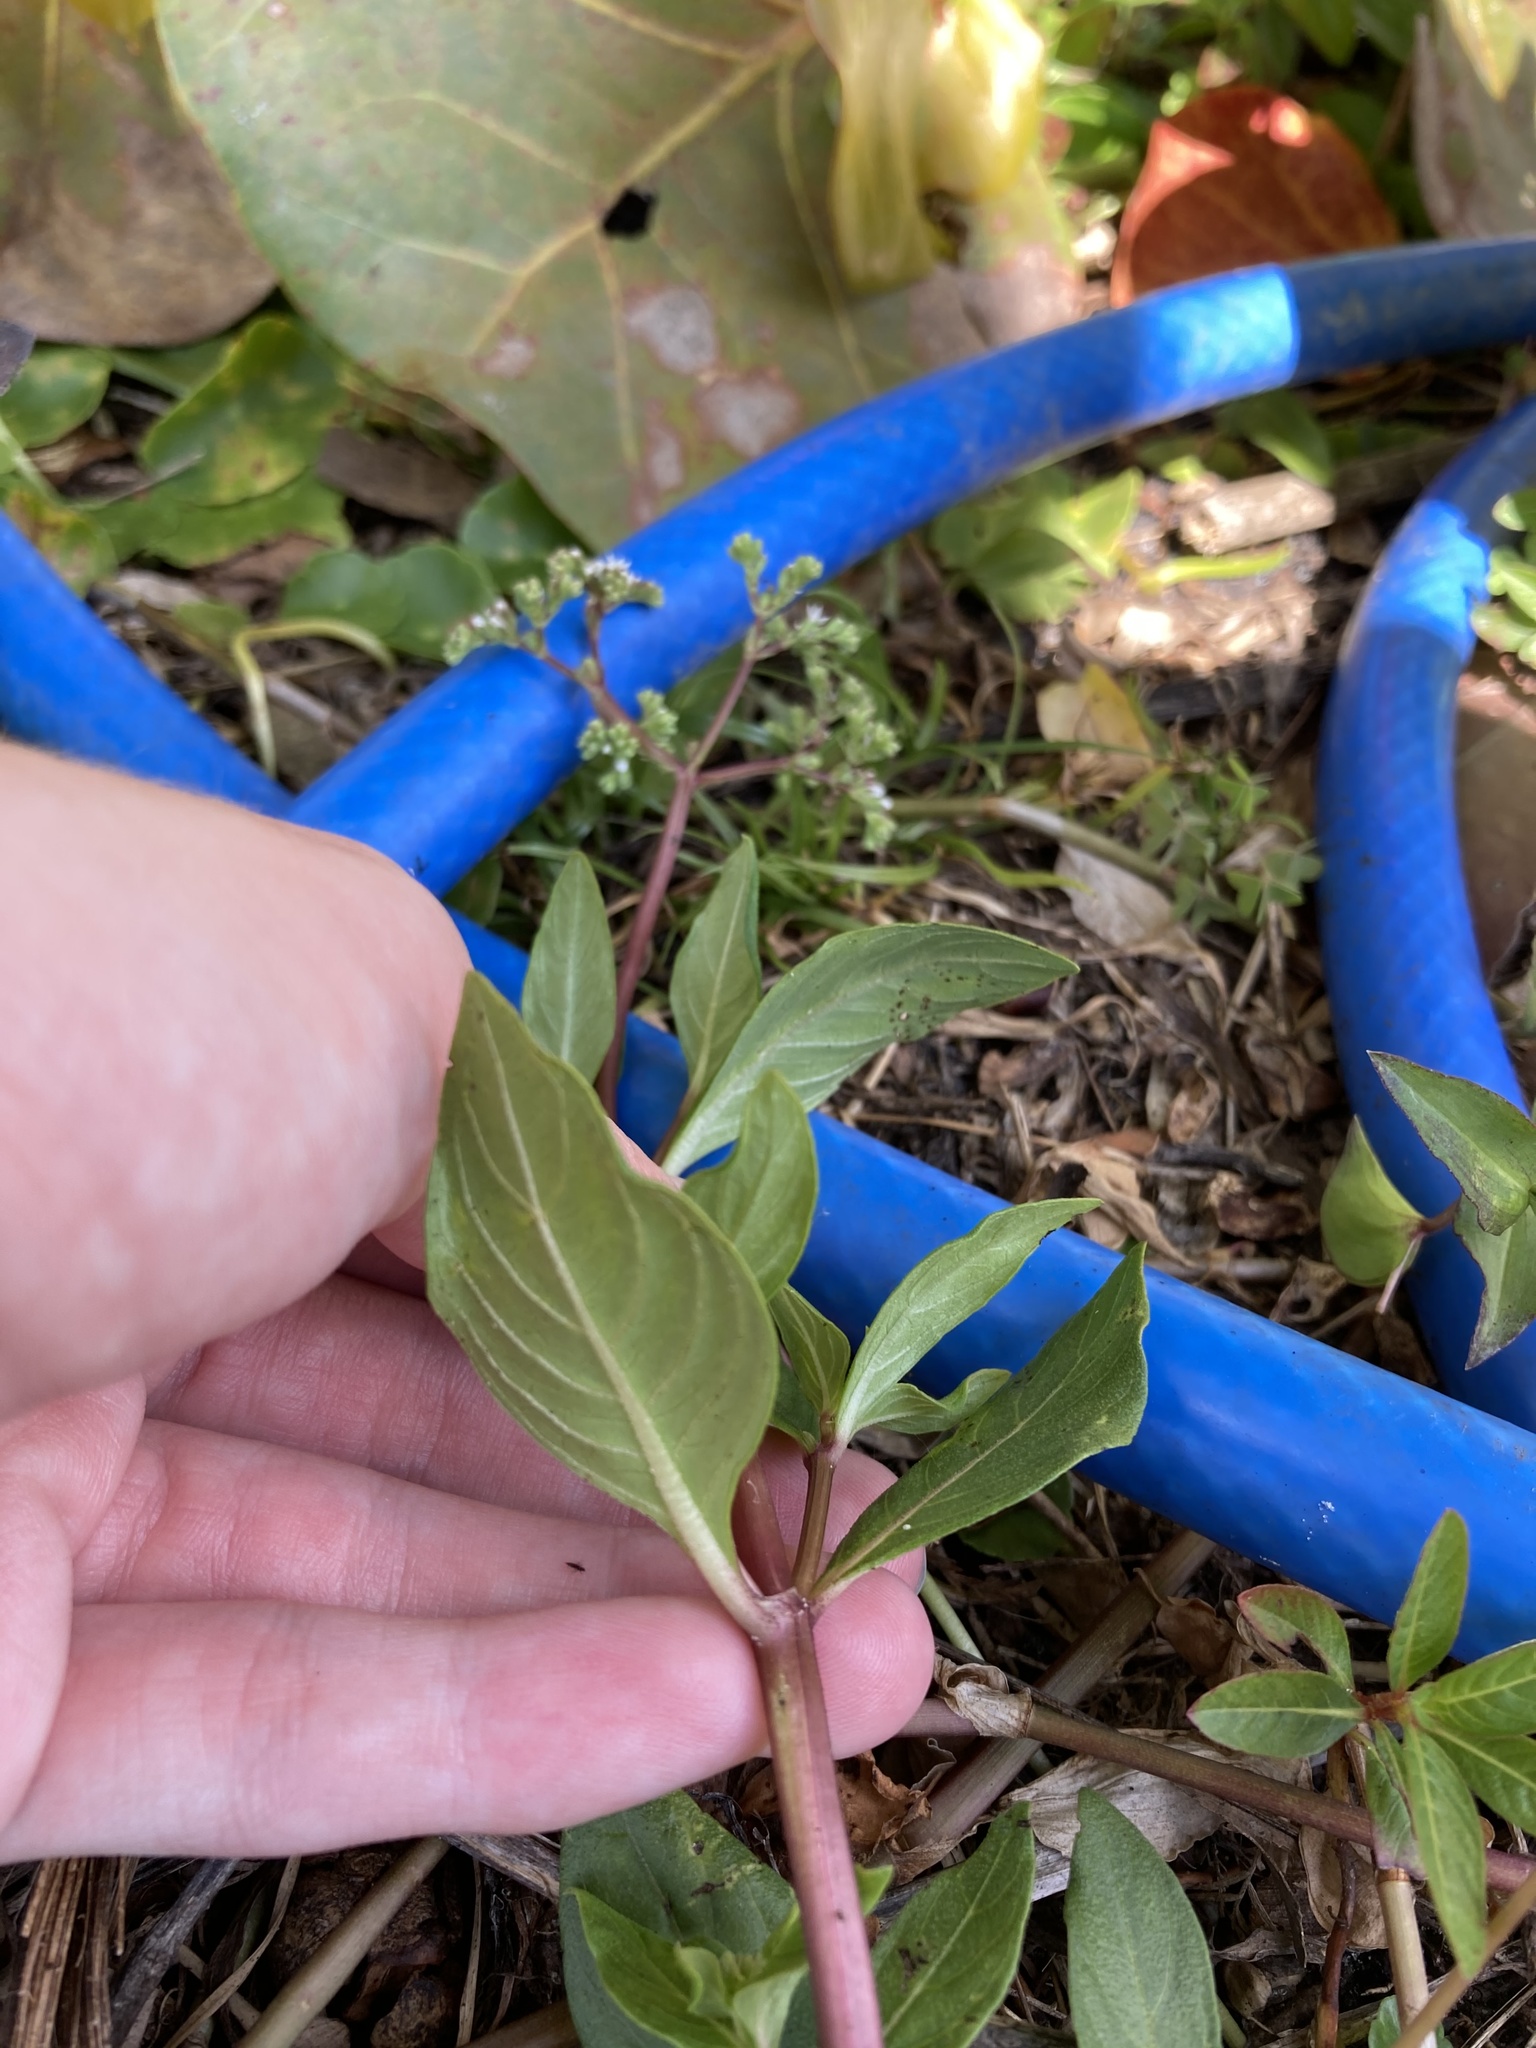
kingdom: Plantae
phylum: Tracheophyta
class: Magnoliopsida
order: Gentianales
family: Loganiaceae
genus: Mitreola
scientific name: Mitreola petiolata
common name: Lax hornpod
